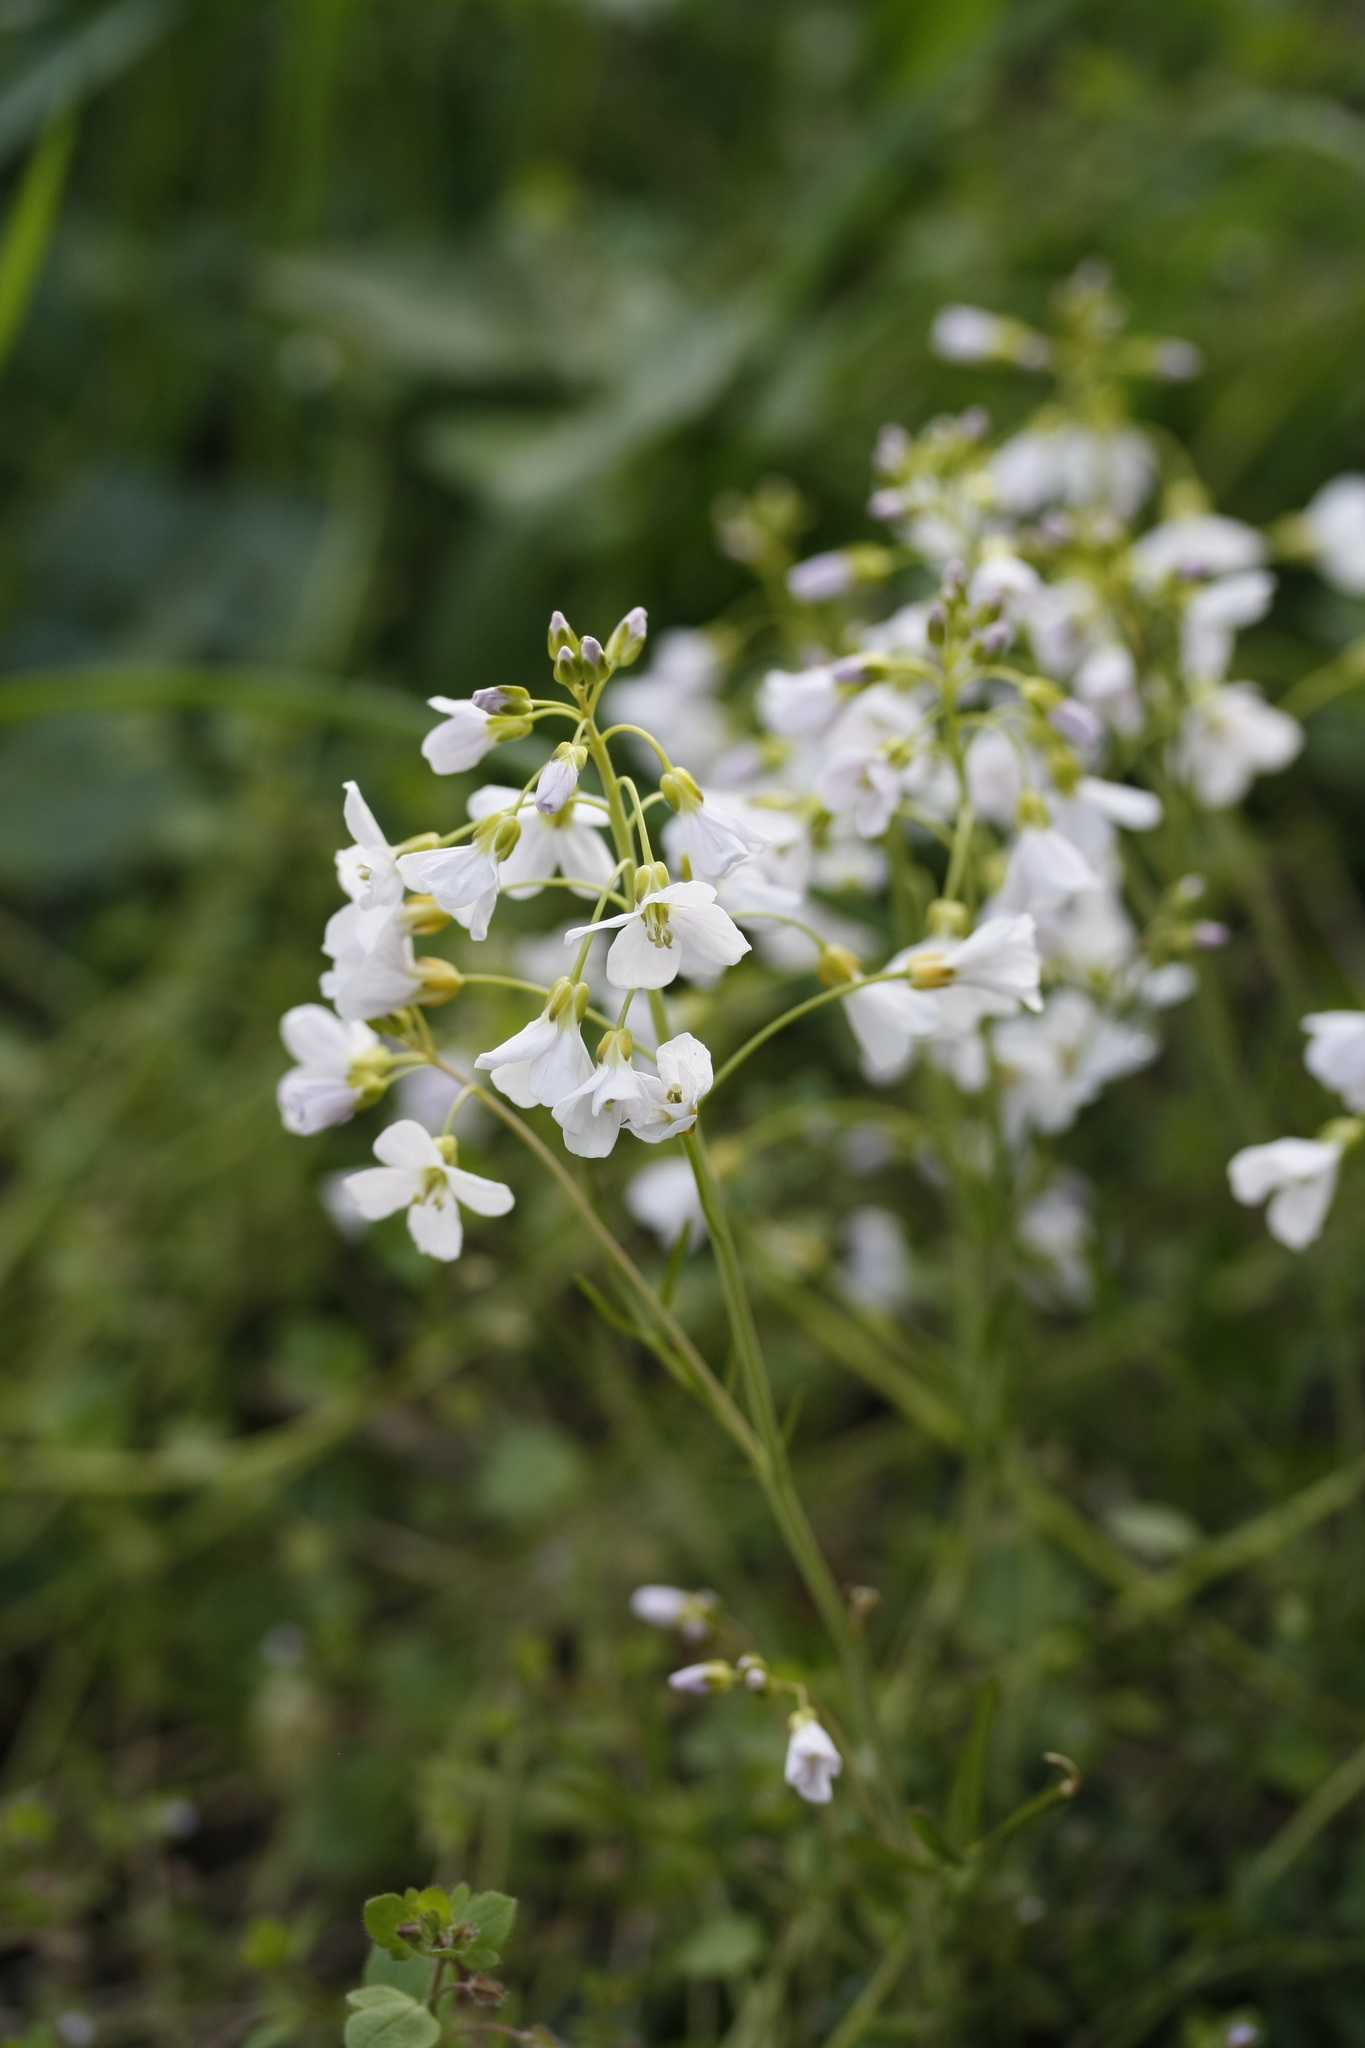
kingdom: Plantae
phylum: Tracheophyta
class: Magnoliopsida
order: Brassicales
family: Brassicaceae
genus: Cardamine
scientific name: Cardamine pratensis
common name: Cuckoo flower
